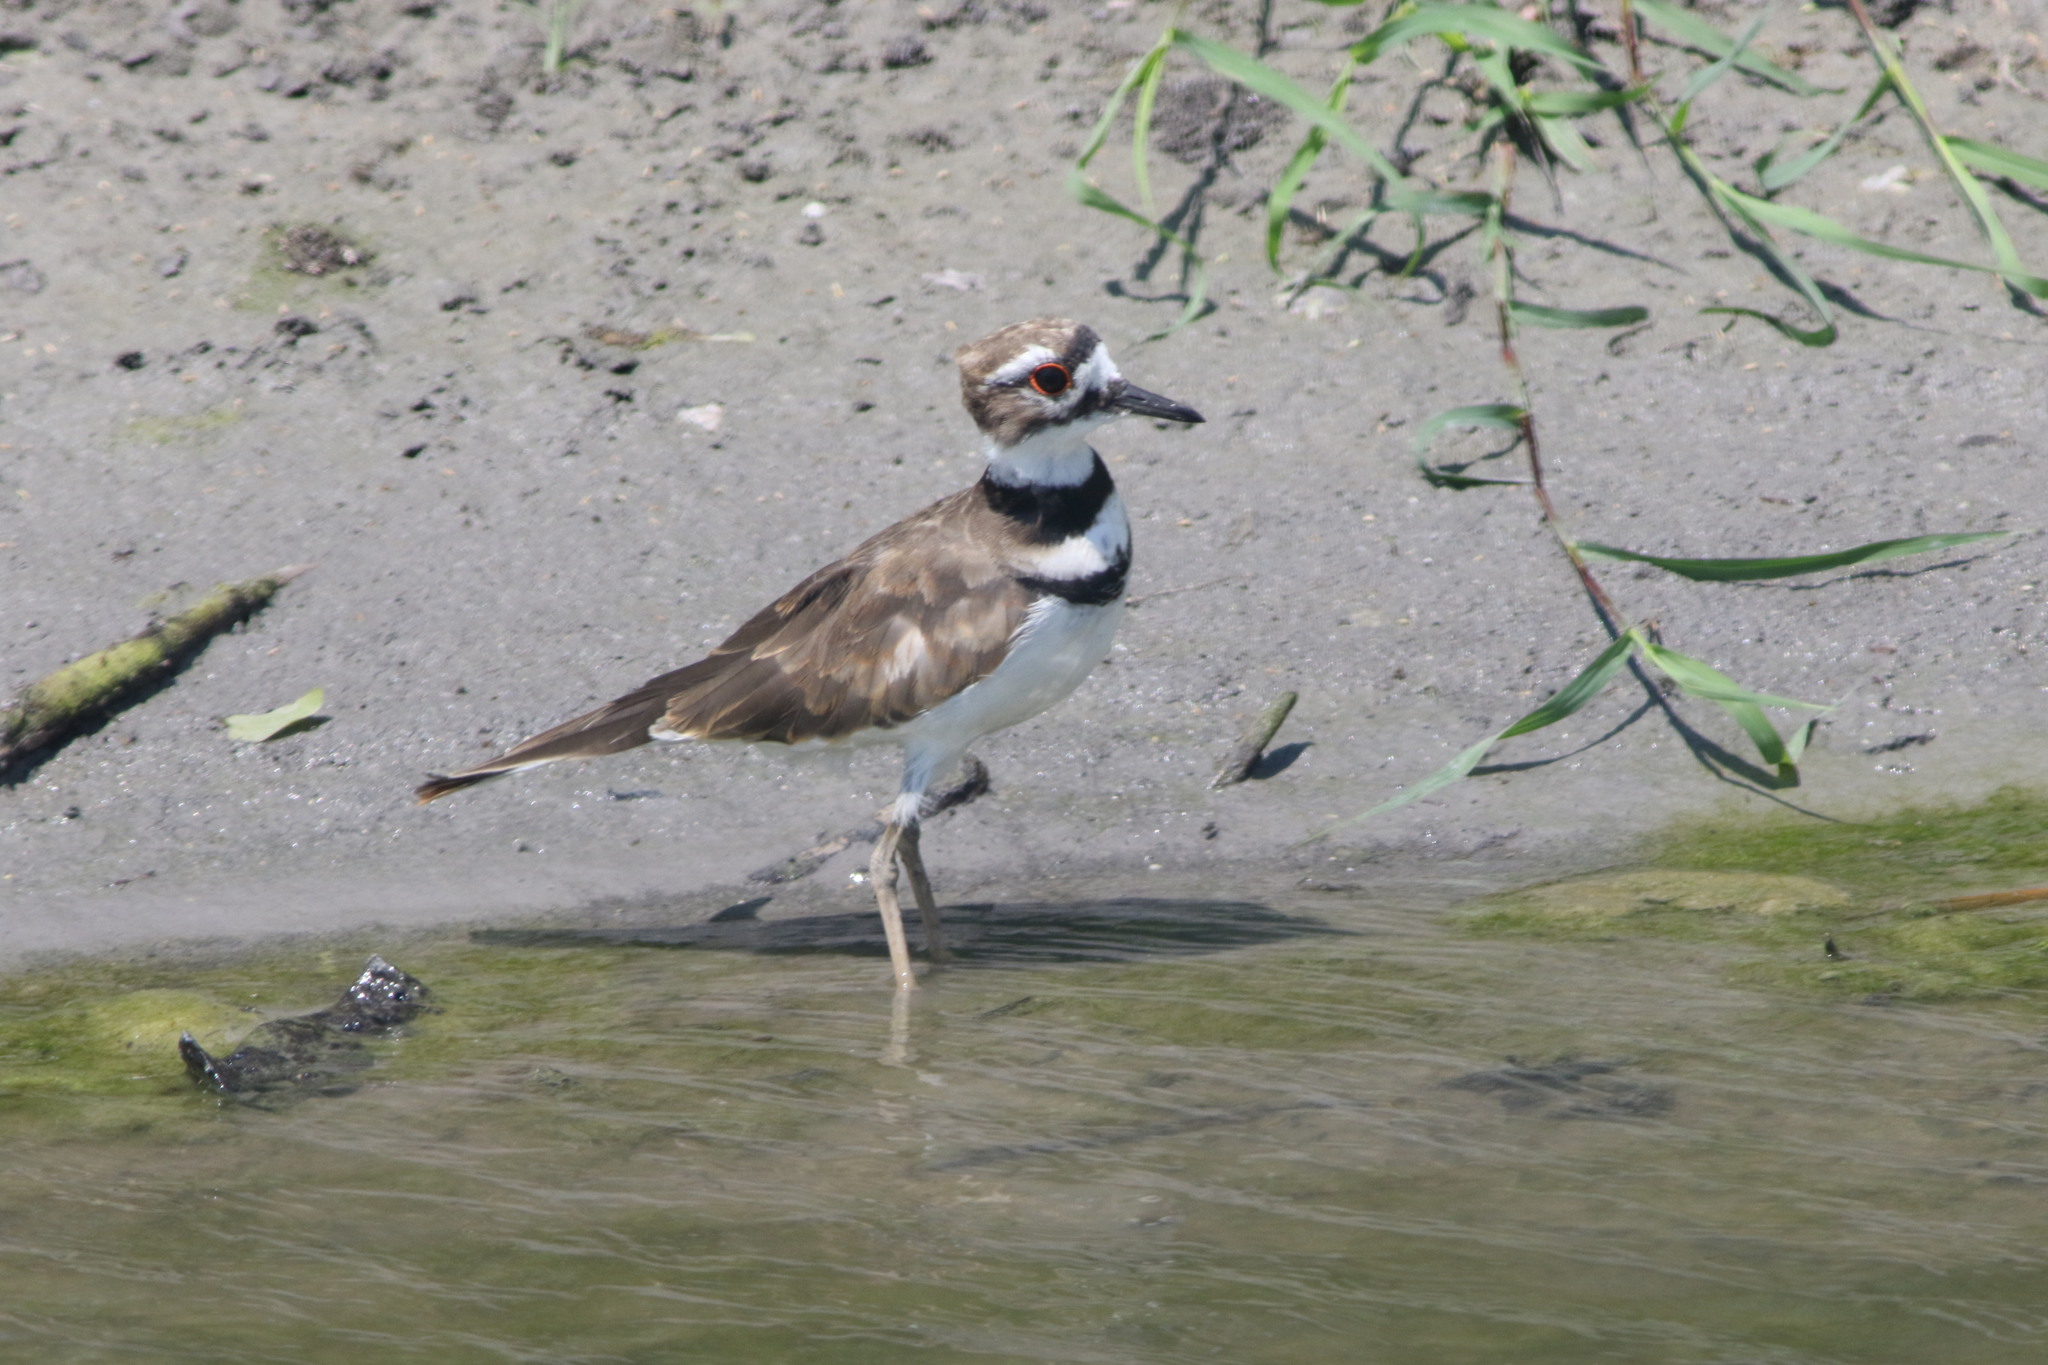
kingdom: Animalia
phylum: Chordata
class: Aves
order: Charadriiformes
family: Charadriidae
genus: Charadrius
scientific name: Charadrius vociferus
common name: Killdeer
